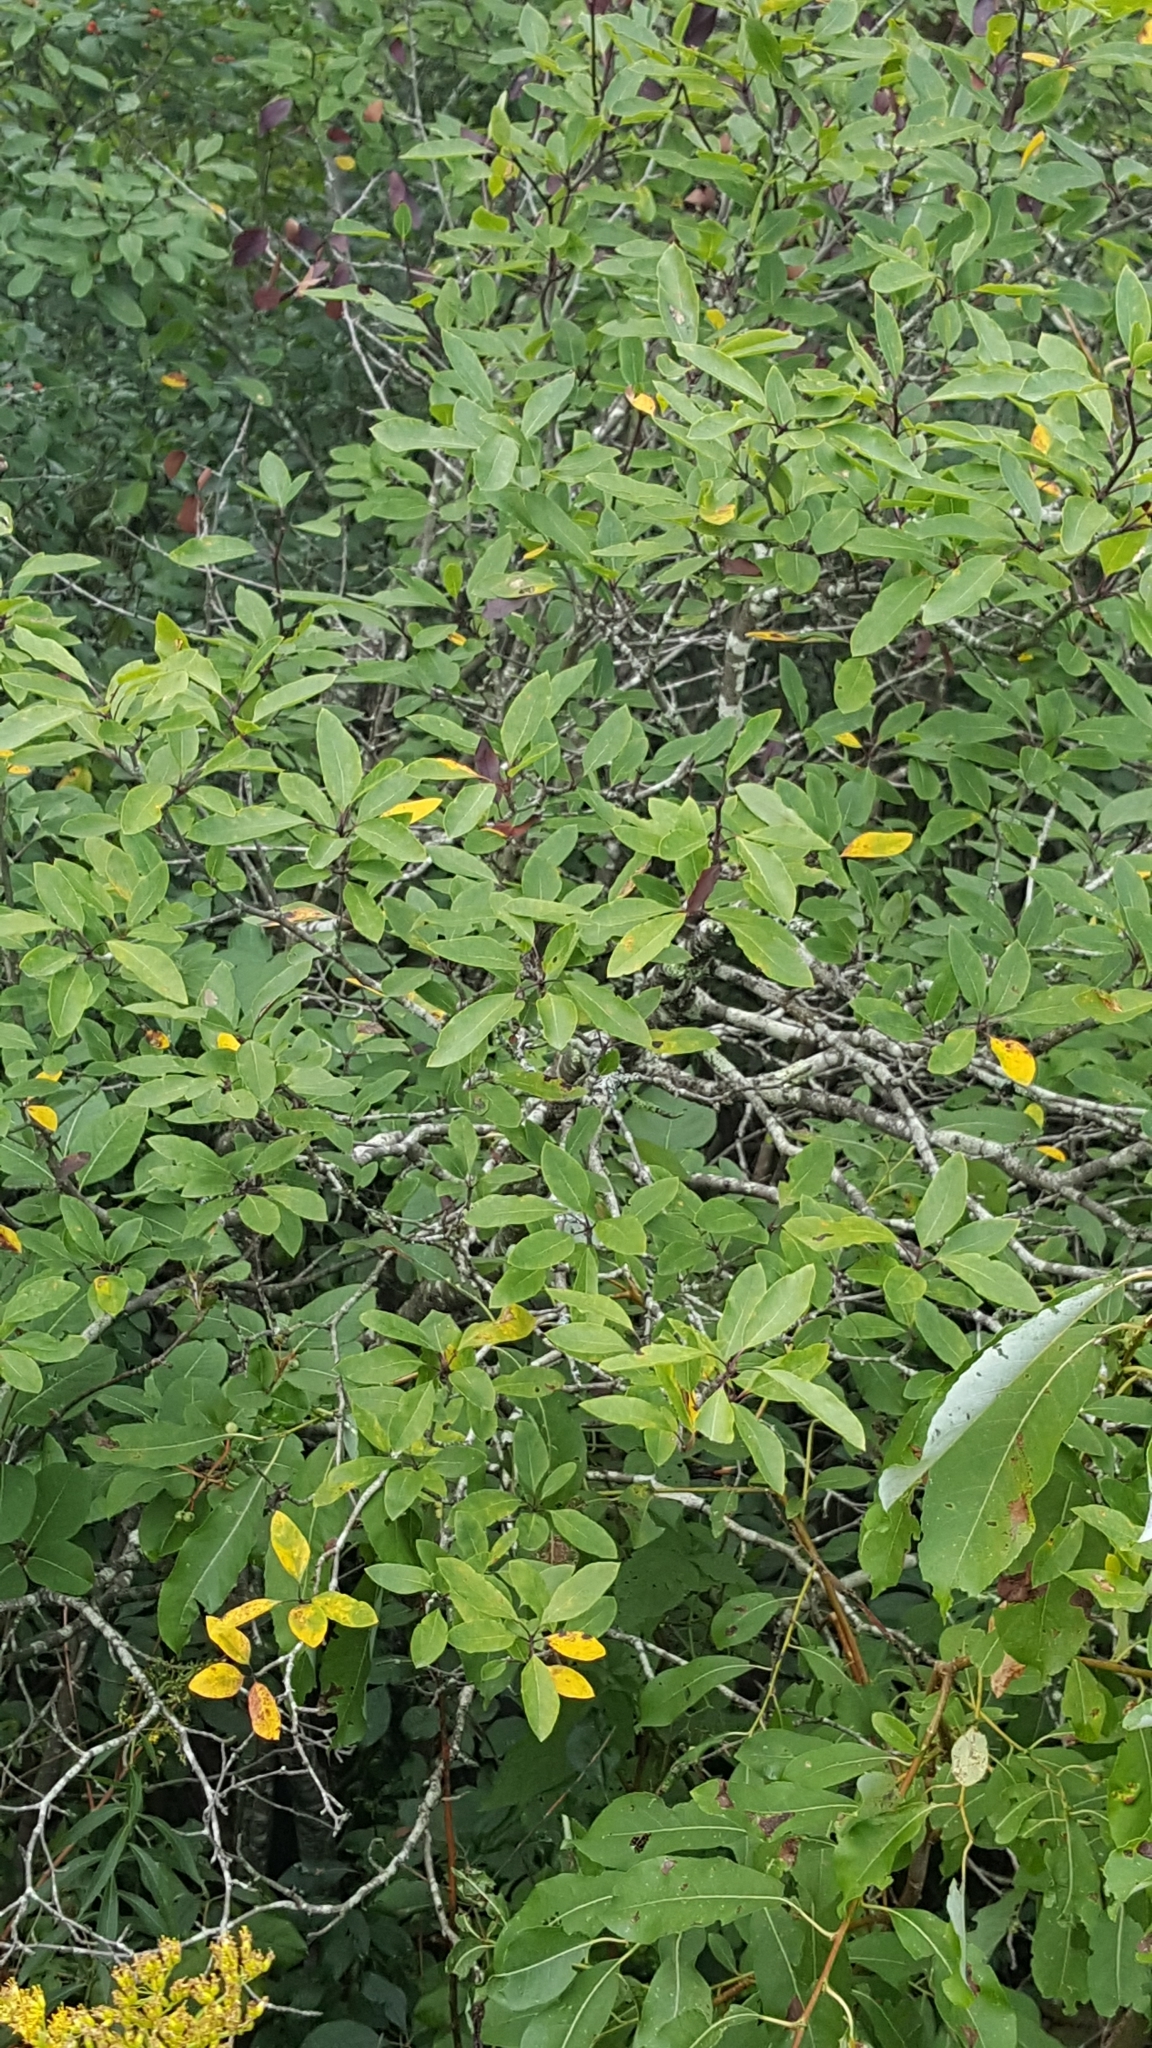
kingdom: Plantae
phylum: Tracheophyta
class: Magnoliopsida
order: Aquifoliales
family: Aquifoliaceae
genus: Ilex
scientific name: Ilex mucronata
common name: Catberry
